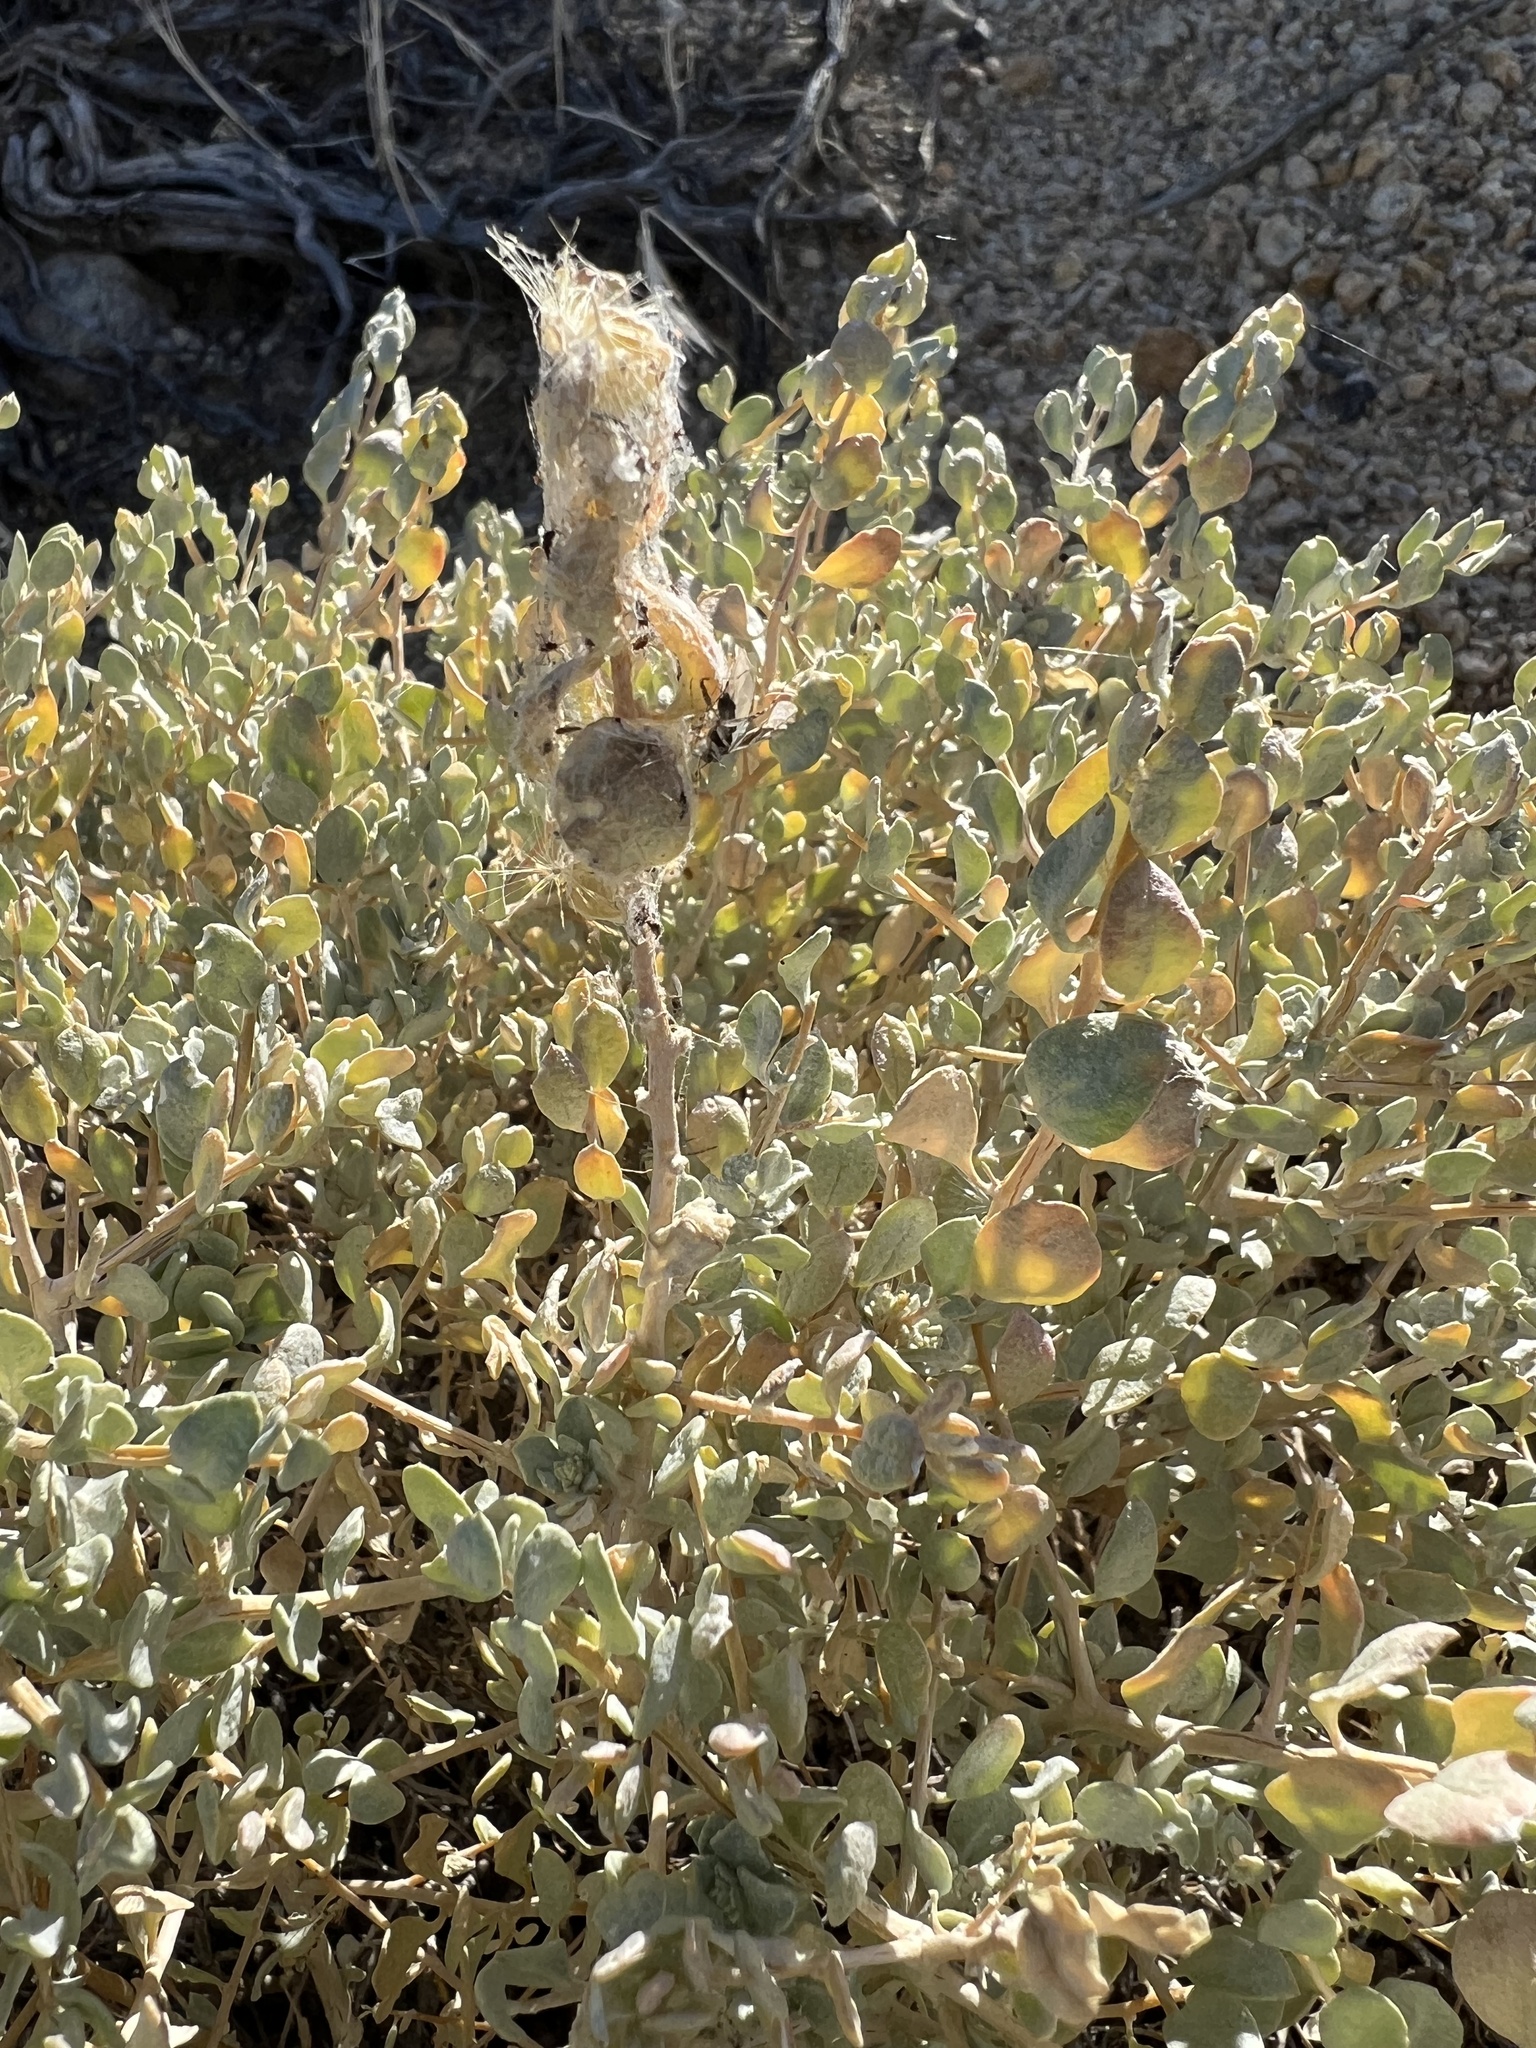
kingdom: Plantae
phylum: Tracheophyta
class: Magnoliopsida
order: Caryophyllales
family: Amaranthaceae
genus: Atriplex
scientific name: Atriplex confertifolia
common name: Shadscale
